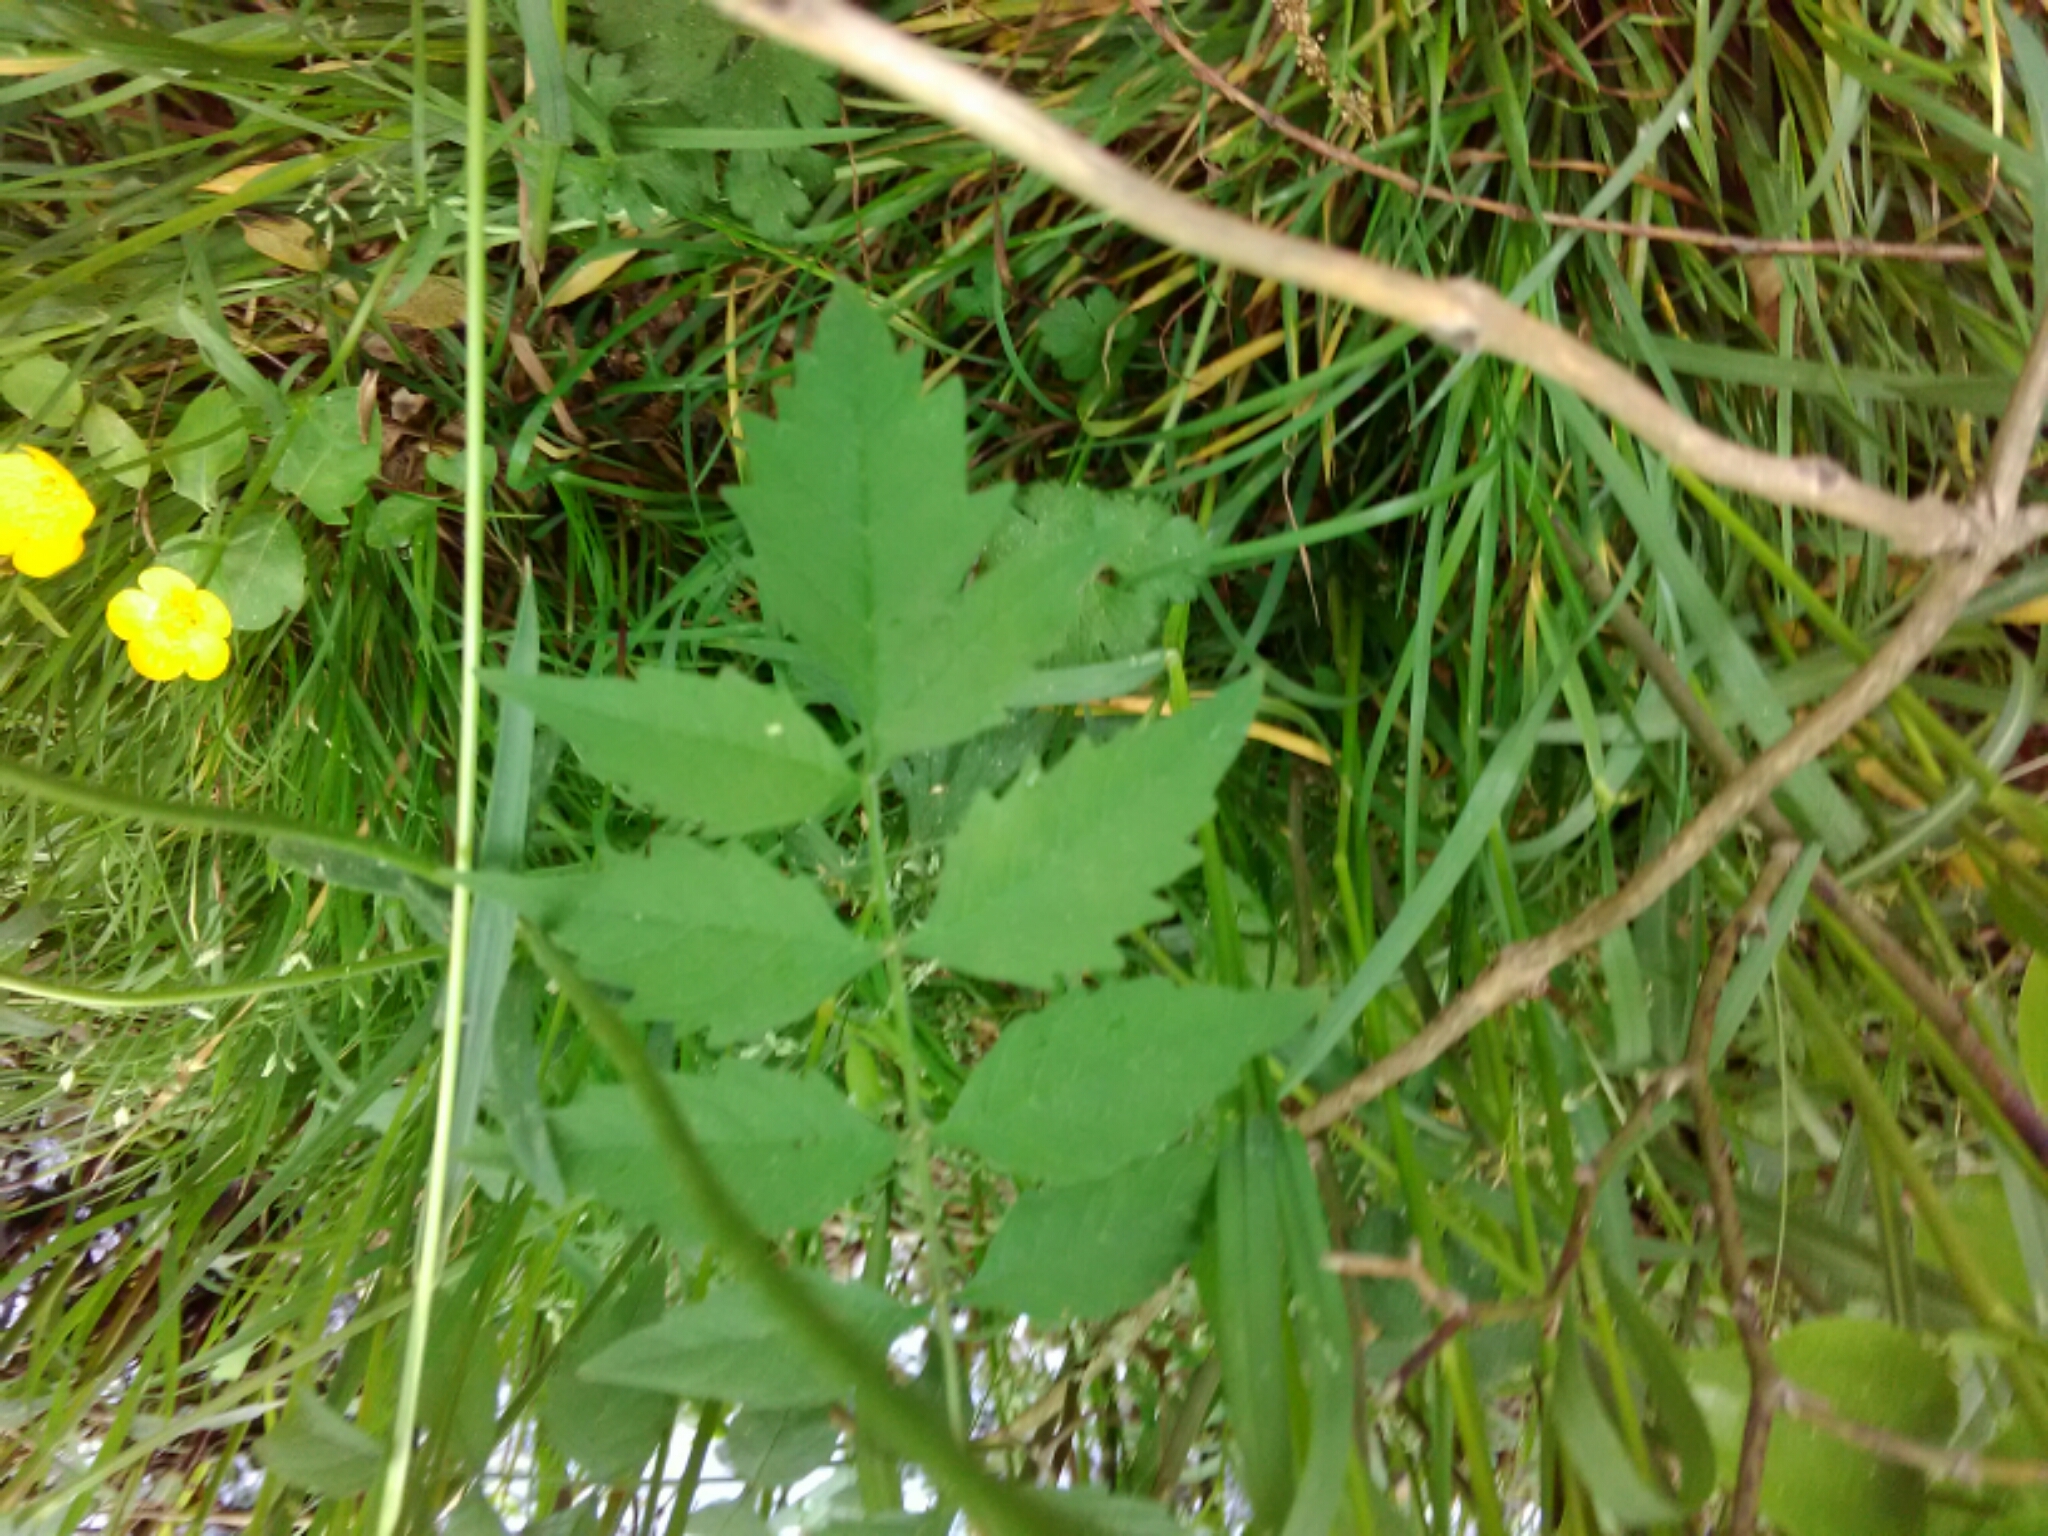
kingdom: Plantae
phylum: Tracheophyta
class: Magnoliopsida
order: Lamiales
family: Bignoniaceae
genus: Campsis
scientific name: Campsis radicans
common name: Trumpet-creeper
